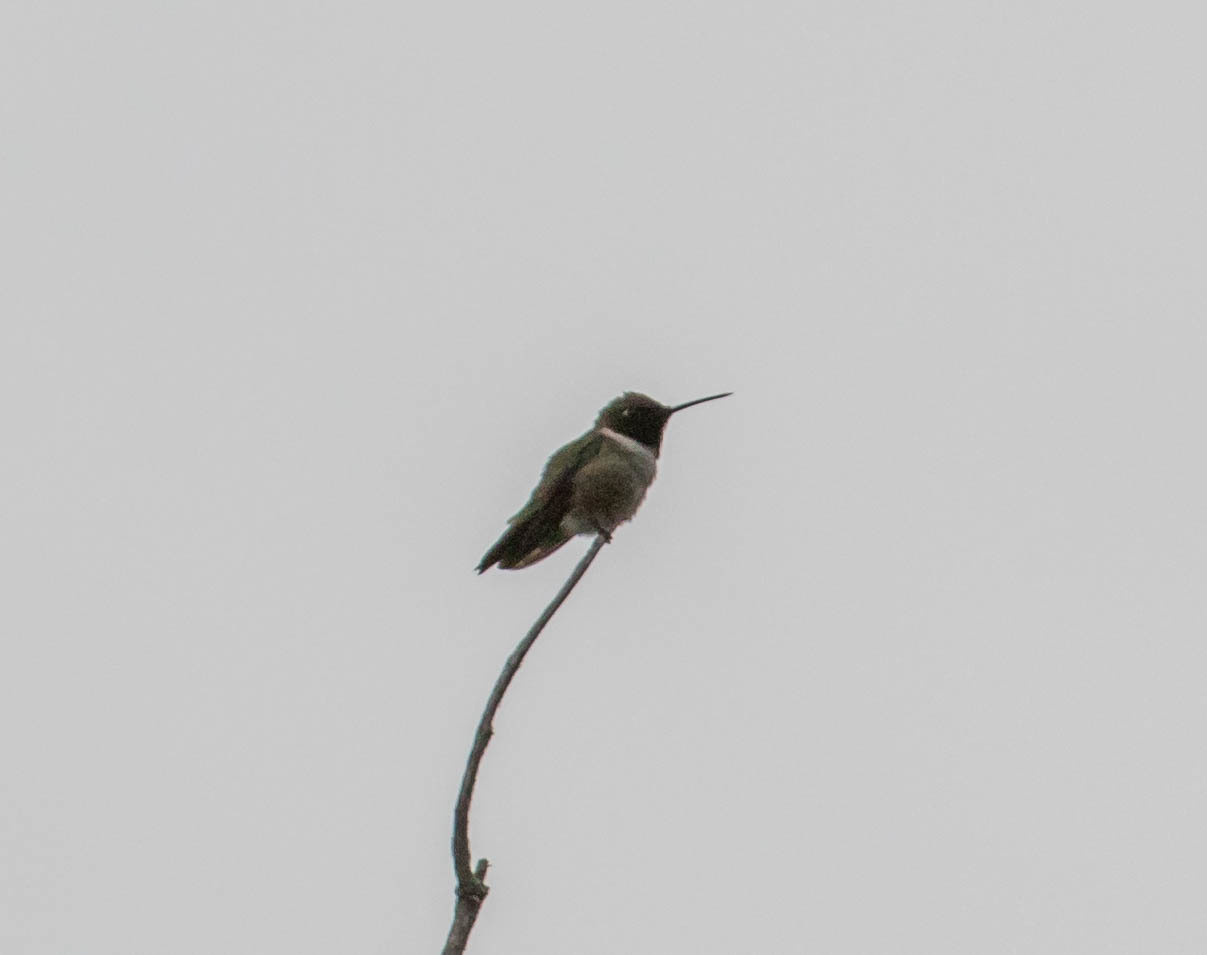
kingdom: Animalia
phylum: Chordata
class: Aves
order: Apodiformes
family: Trochilidae
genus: Archilochus
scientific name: Archilochus alexandri
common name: Black-chinned hummingbird
